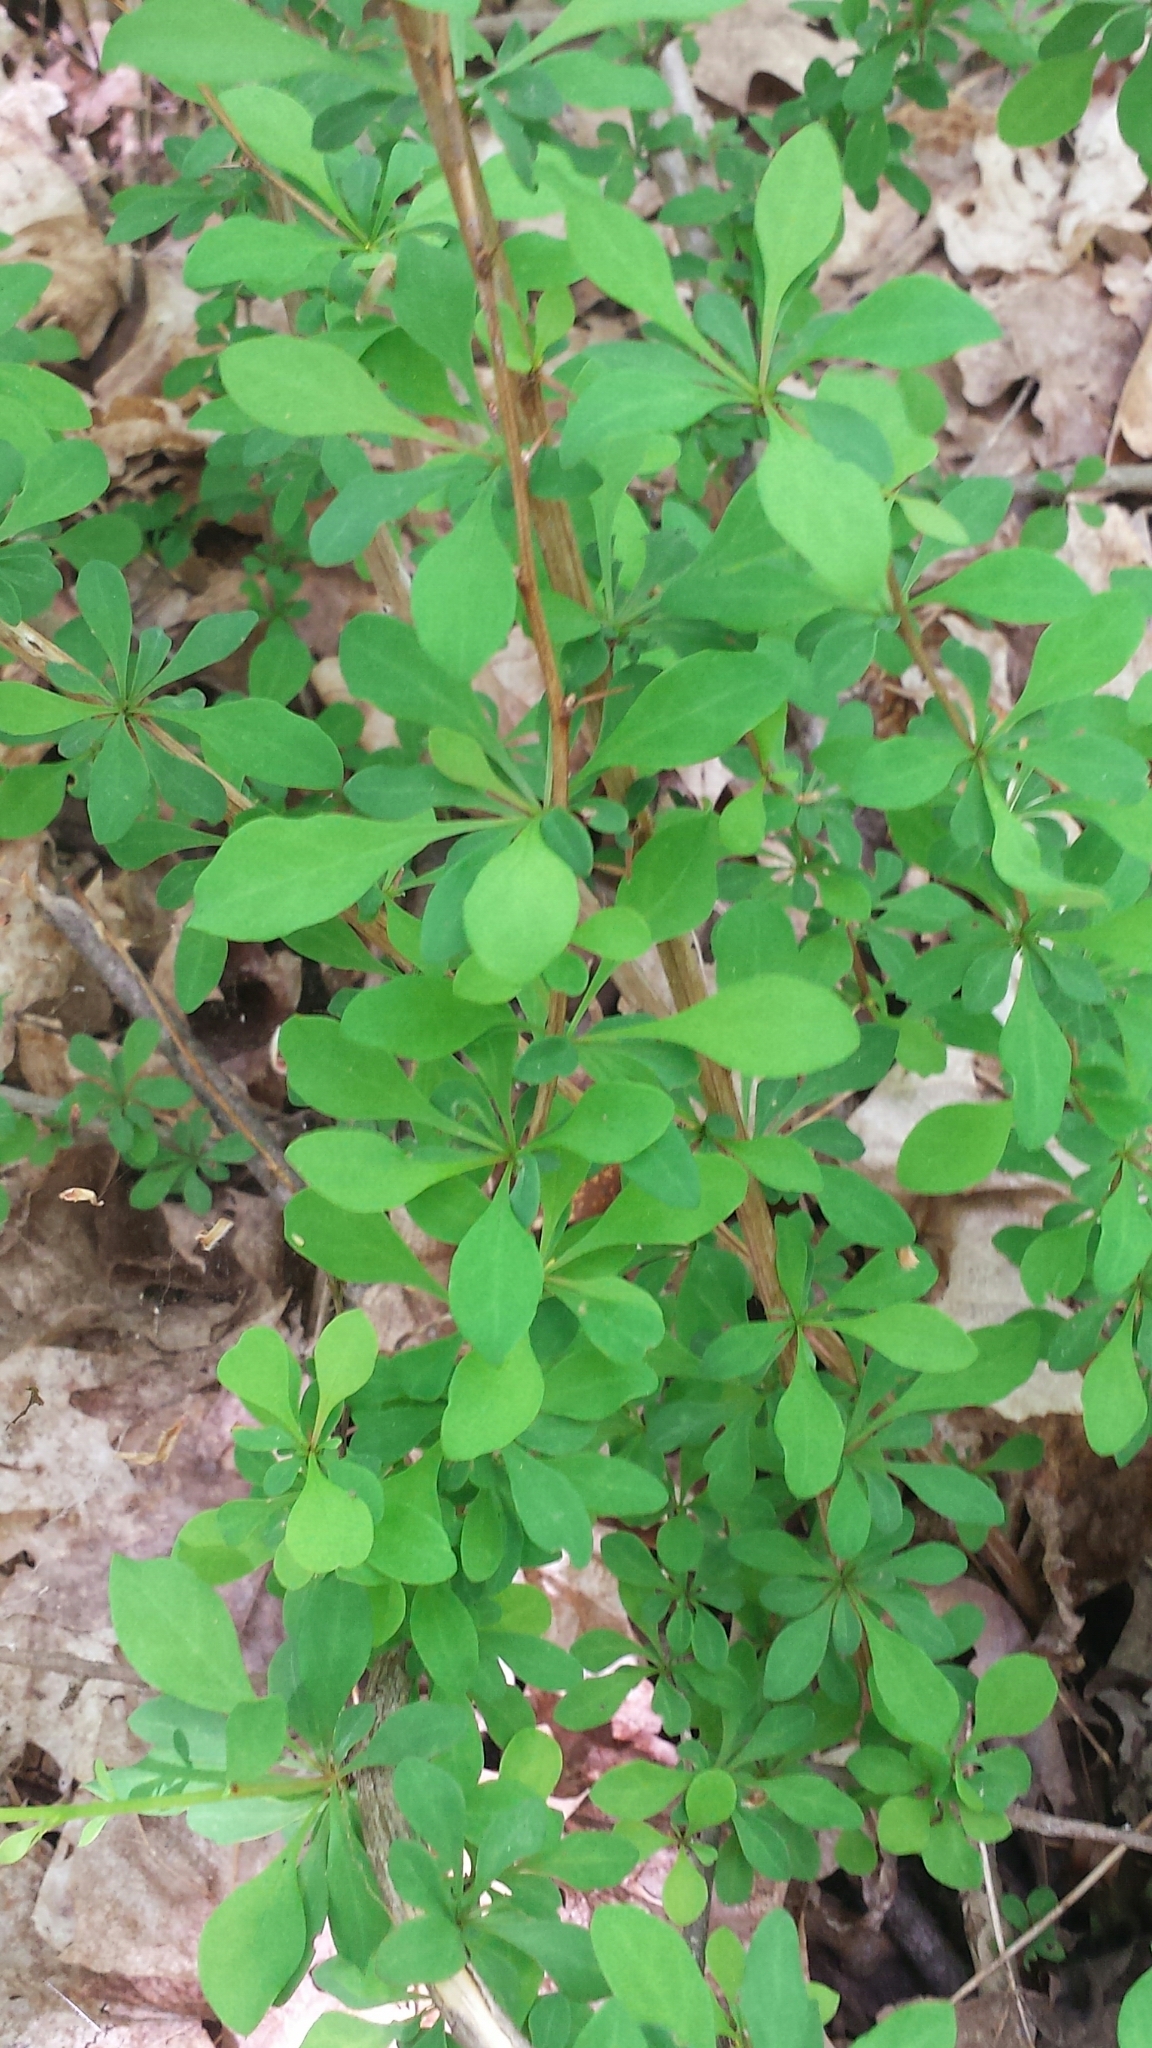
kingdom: Plantae
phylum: Tracheophyta
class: Magnoliopsida
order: Ranunculales
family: Berberidaceae
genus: Berberis
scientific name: Berberis thunbergii
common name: Japanese barberry
